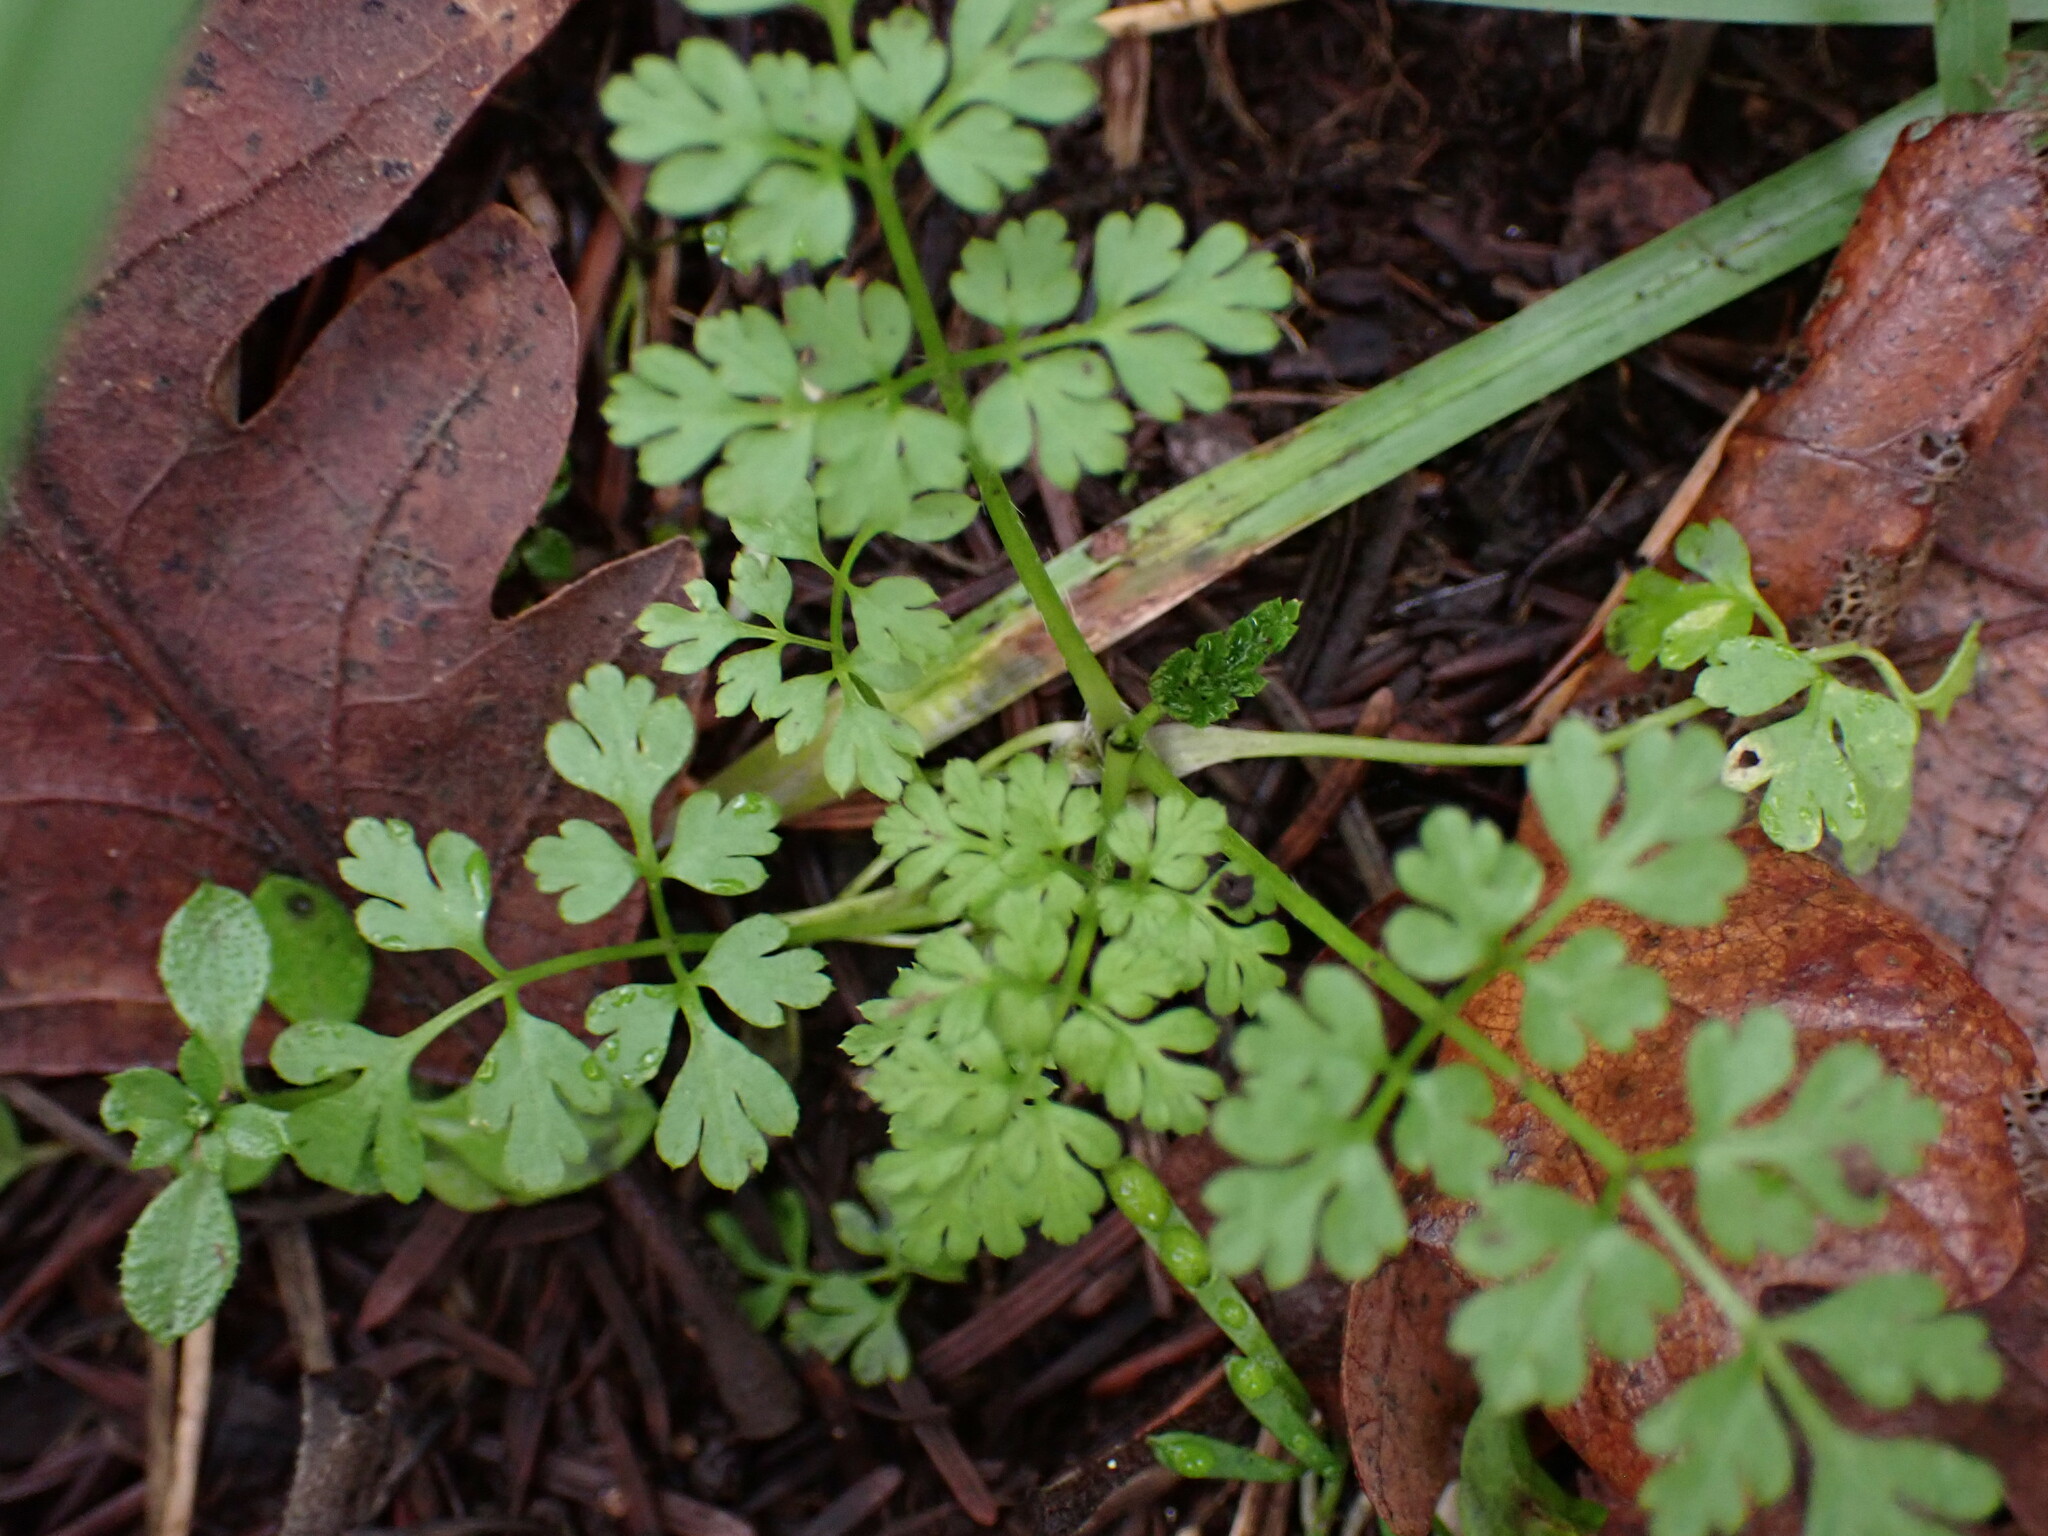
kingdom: Plantae
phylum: Tracheophyta
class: Magnoliopsida
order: Apiales
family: Apiaceae
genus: Anthriscus
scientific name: Anthriscus caucalis
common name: Bur chervil
